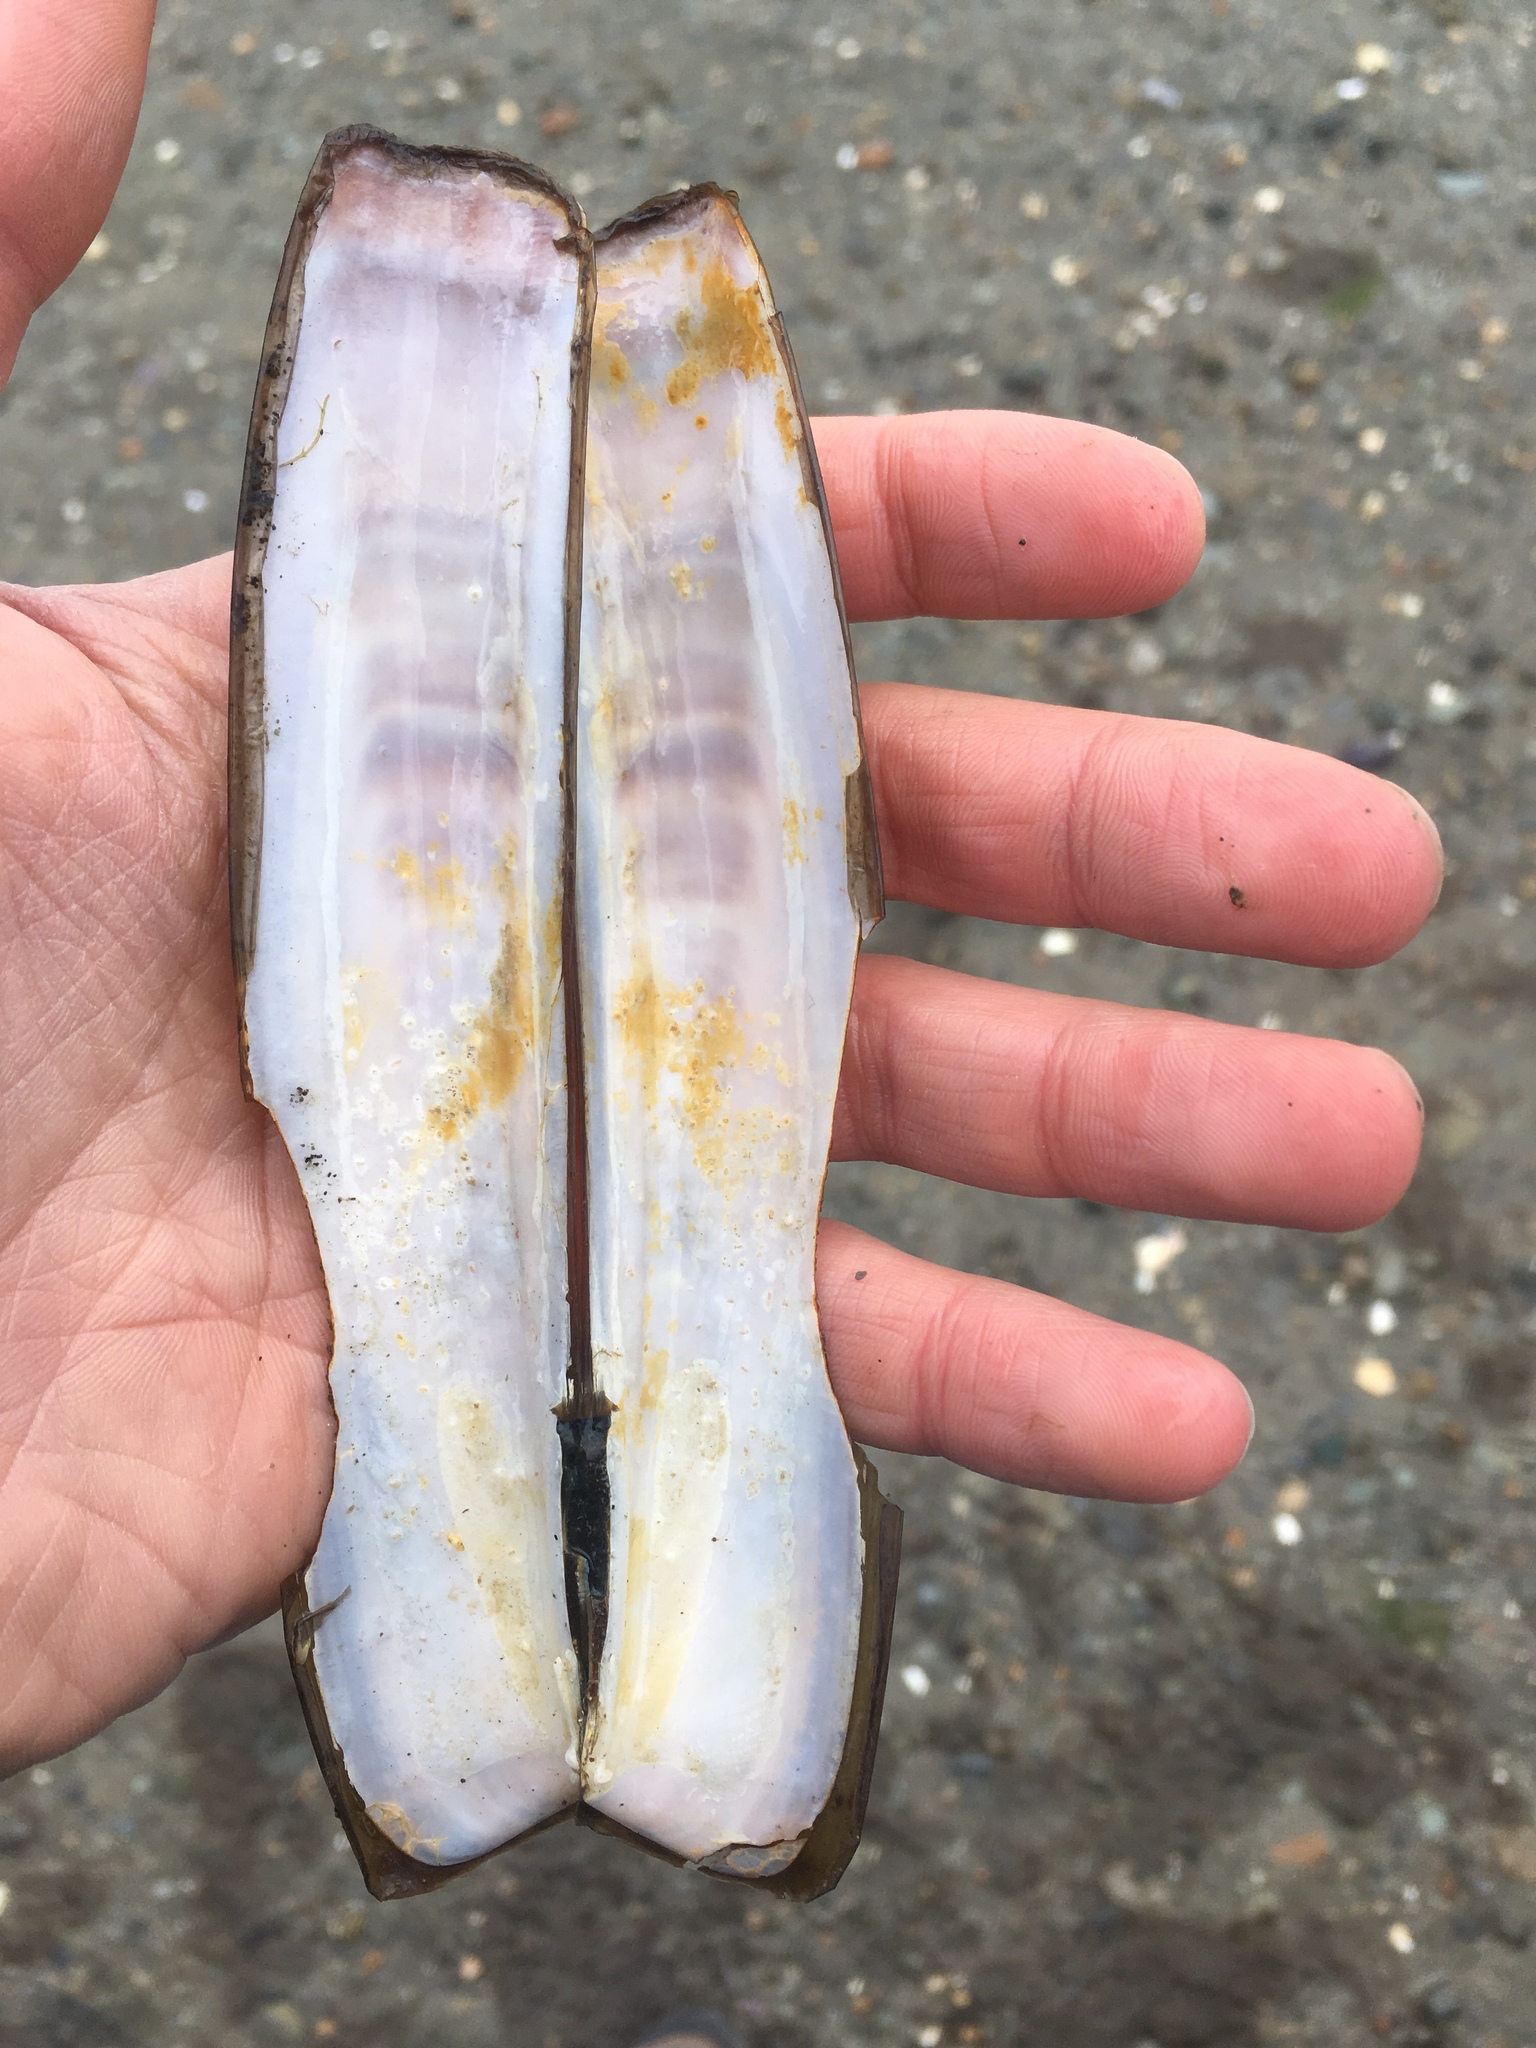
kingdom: Animalia
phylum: Mollusca
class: Bivalvia
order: Adapedonta
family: Pharidae
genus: Ensis
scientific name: Ensis leei
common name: American jack knife clam
